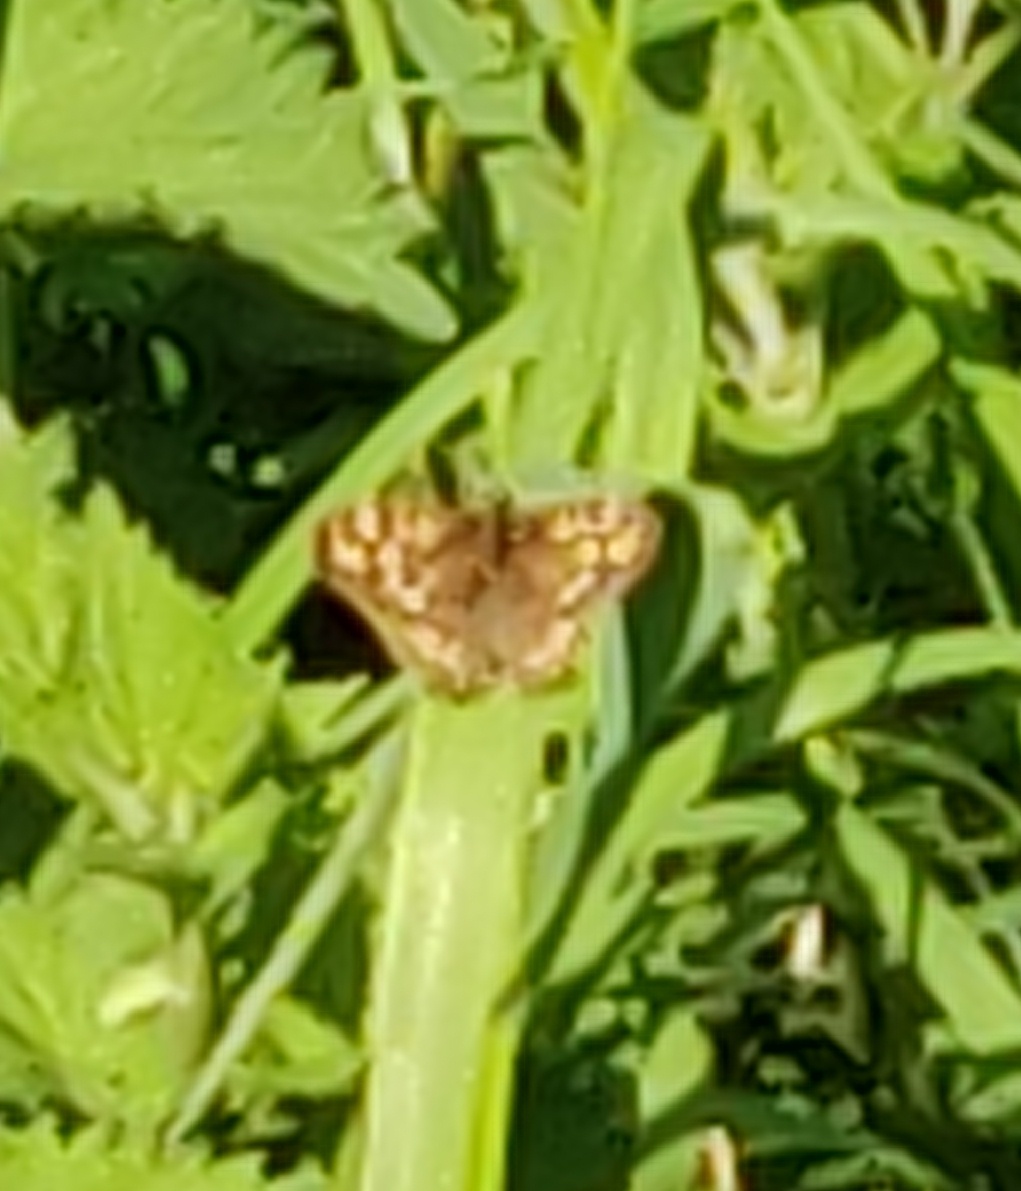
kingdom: Animalia
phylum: Arthropoda
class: Insecta
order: Lepidoptera
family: Nymphalidae
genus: Pararge
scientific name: Pararge aegeria
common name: Speckled wood
